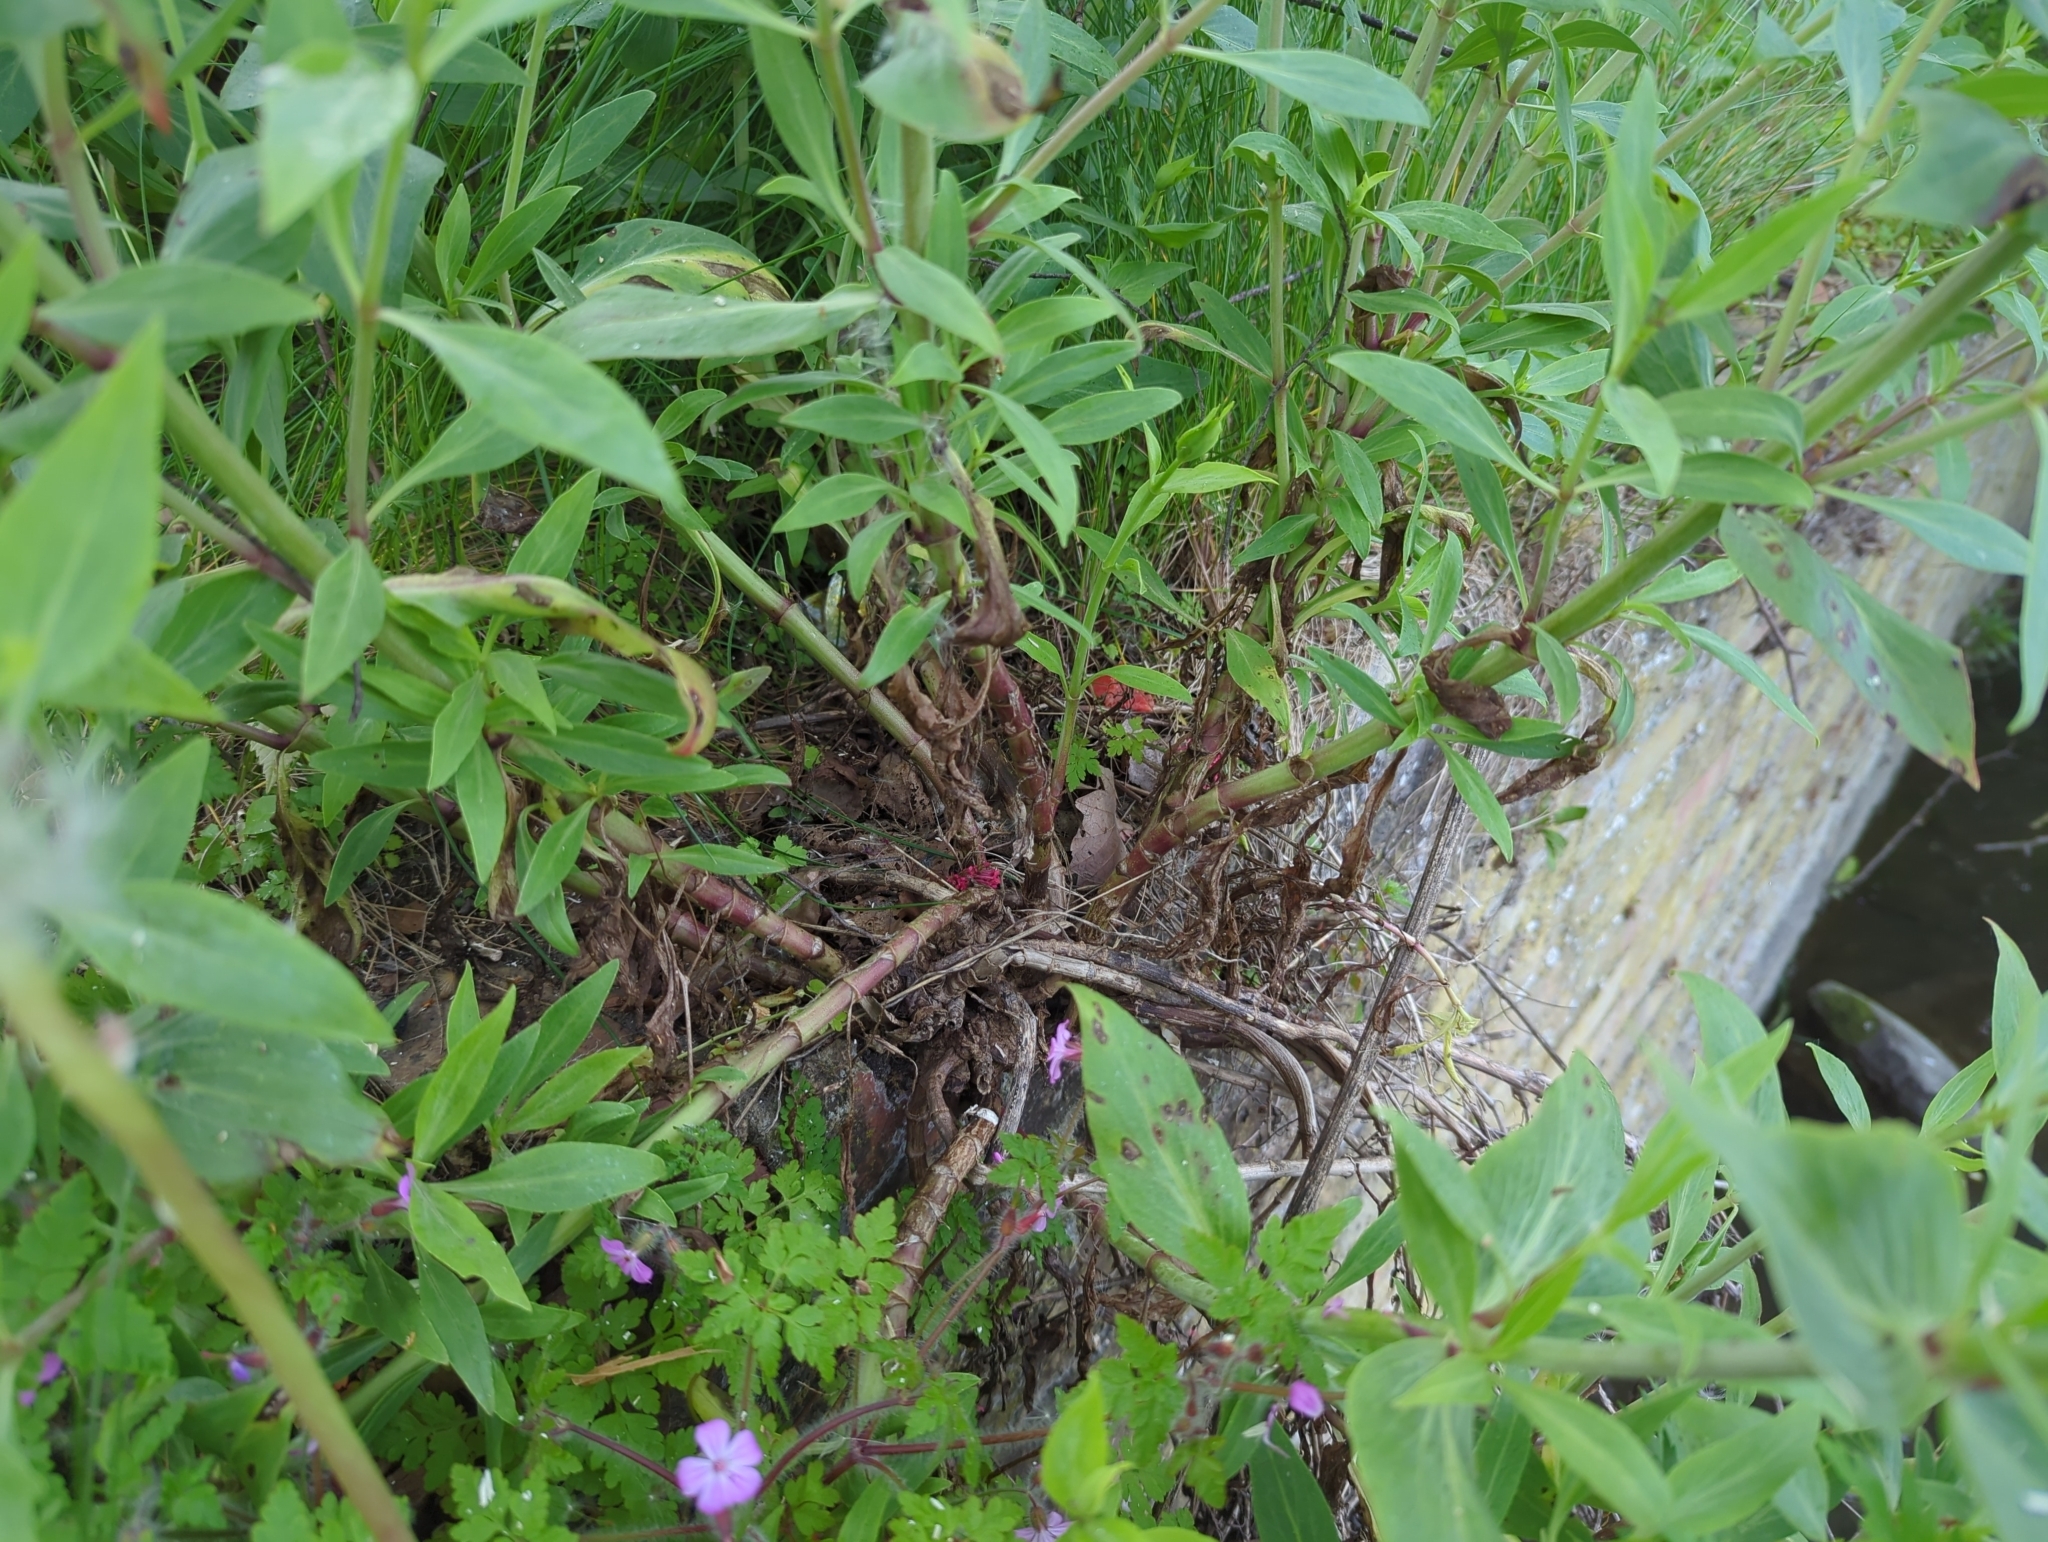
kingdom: Plantae
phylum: Tracheophyta
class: Magnoliopsida
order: Dipsacales
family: Caprifoliaceae
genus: Centranthus
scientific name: Centranthus ruber
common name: Red valerian
